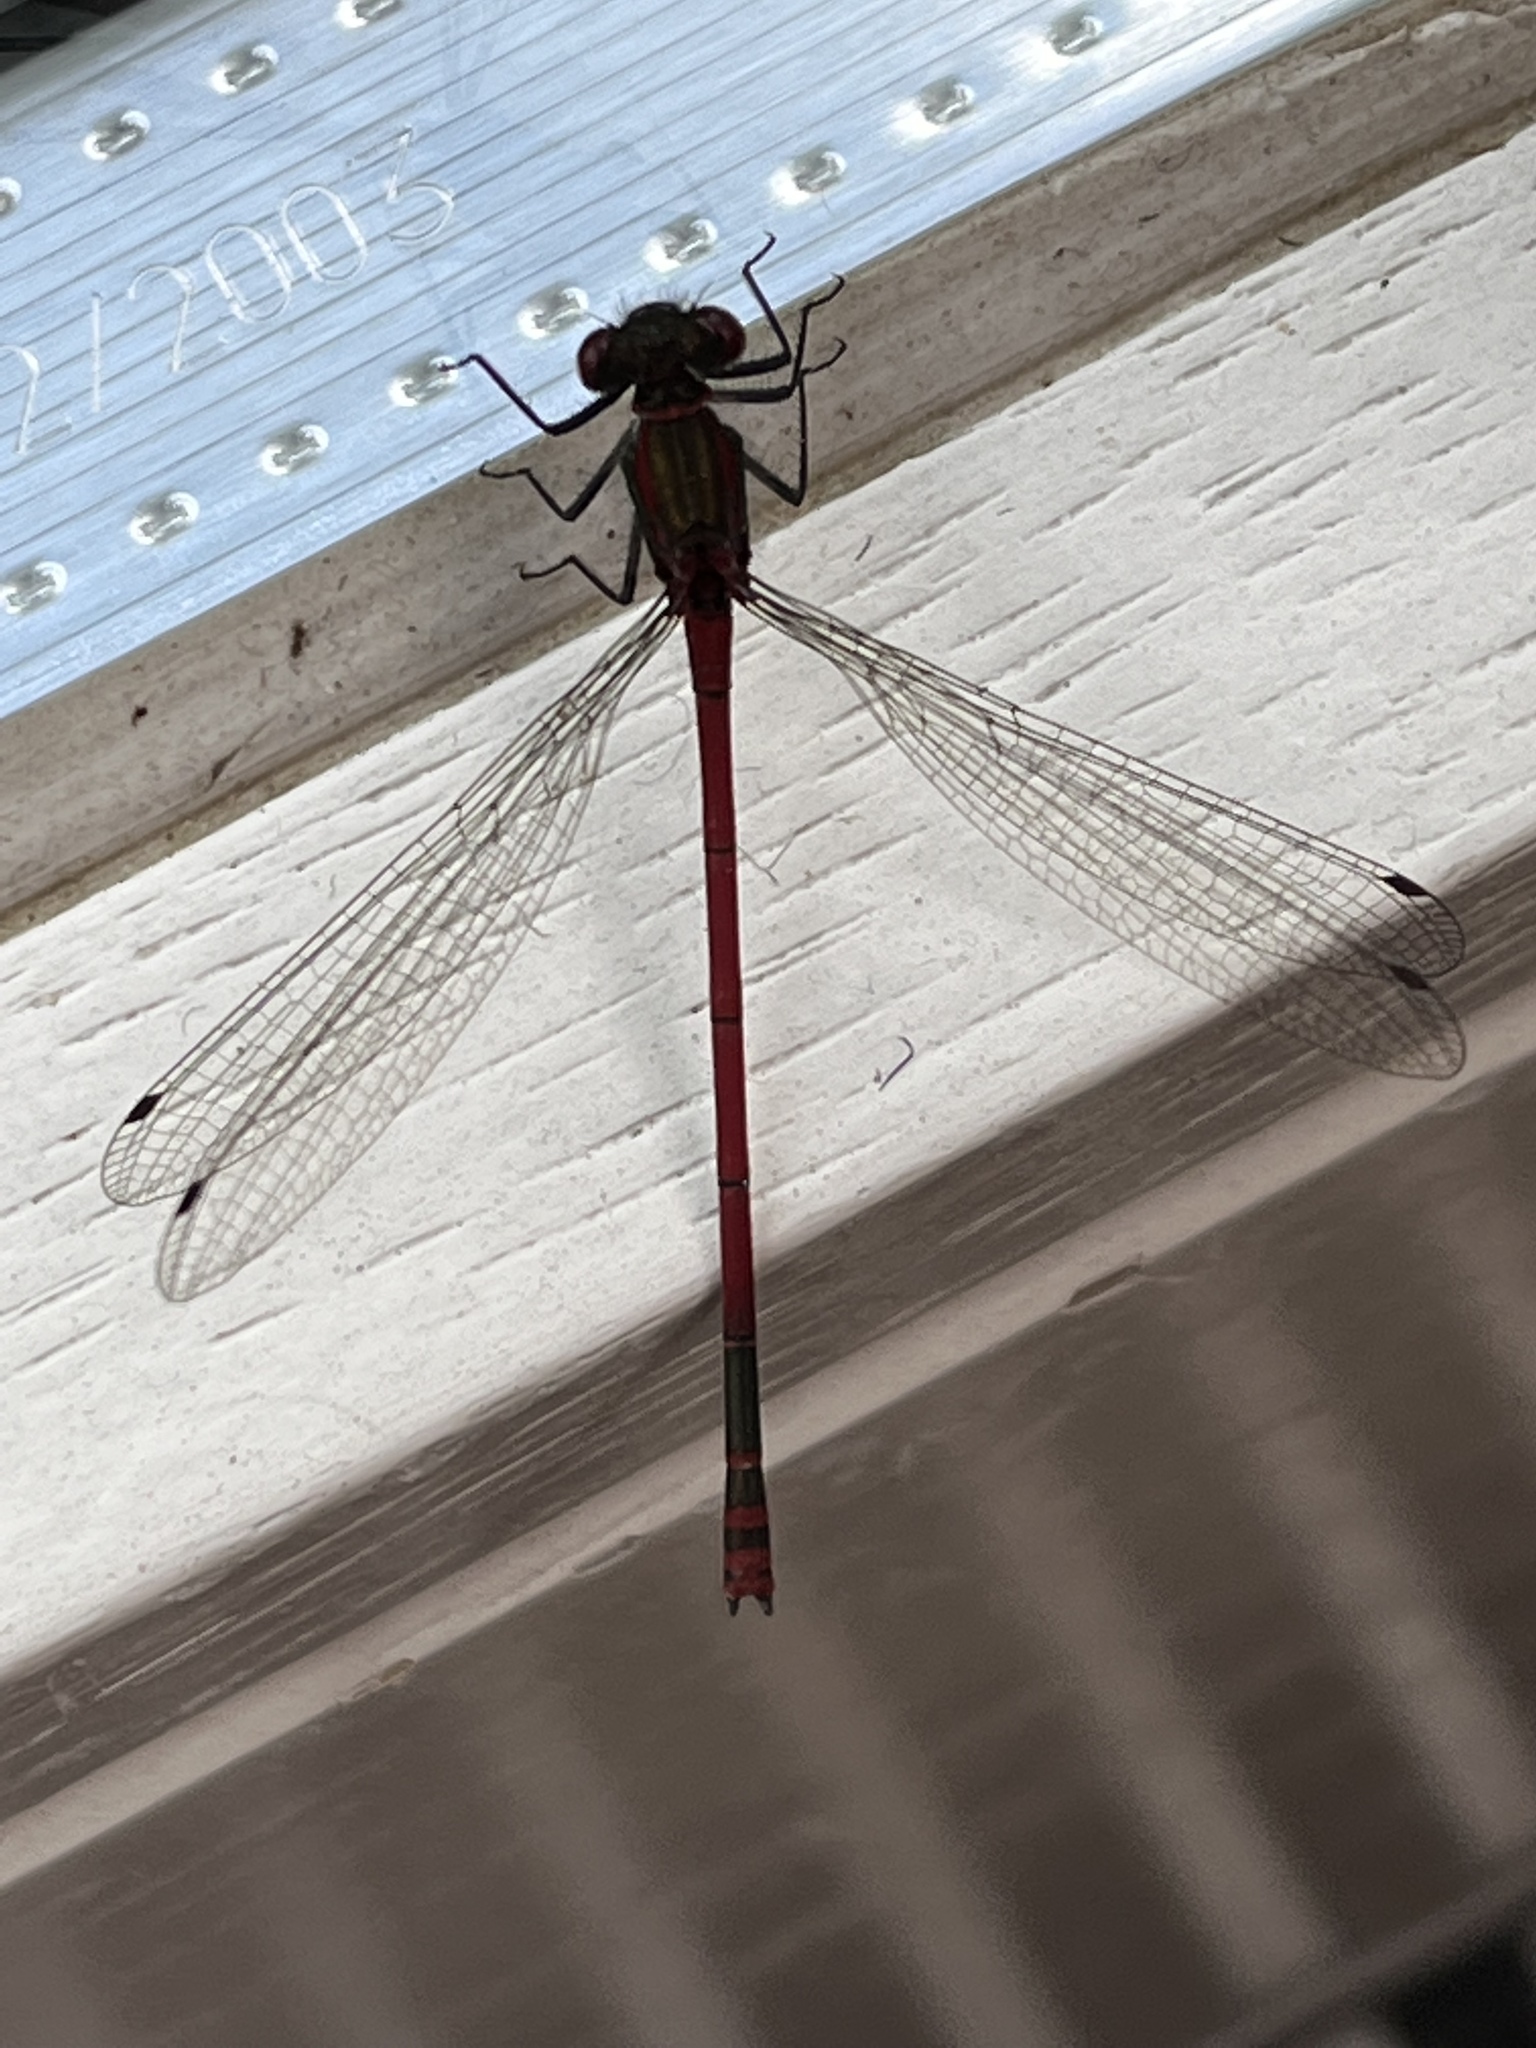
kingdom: Animalia
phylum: Arthropoda
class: Insecta
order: Odonata
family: Coenagrionidae
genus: Pyrrhosoma
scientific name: Pyrrhosoma nymphula
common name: Large red damsel
